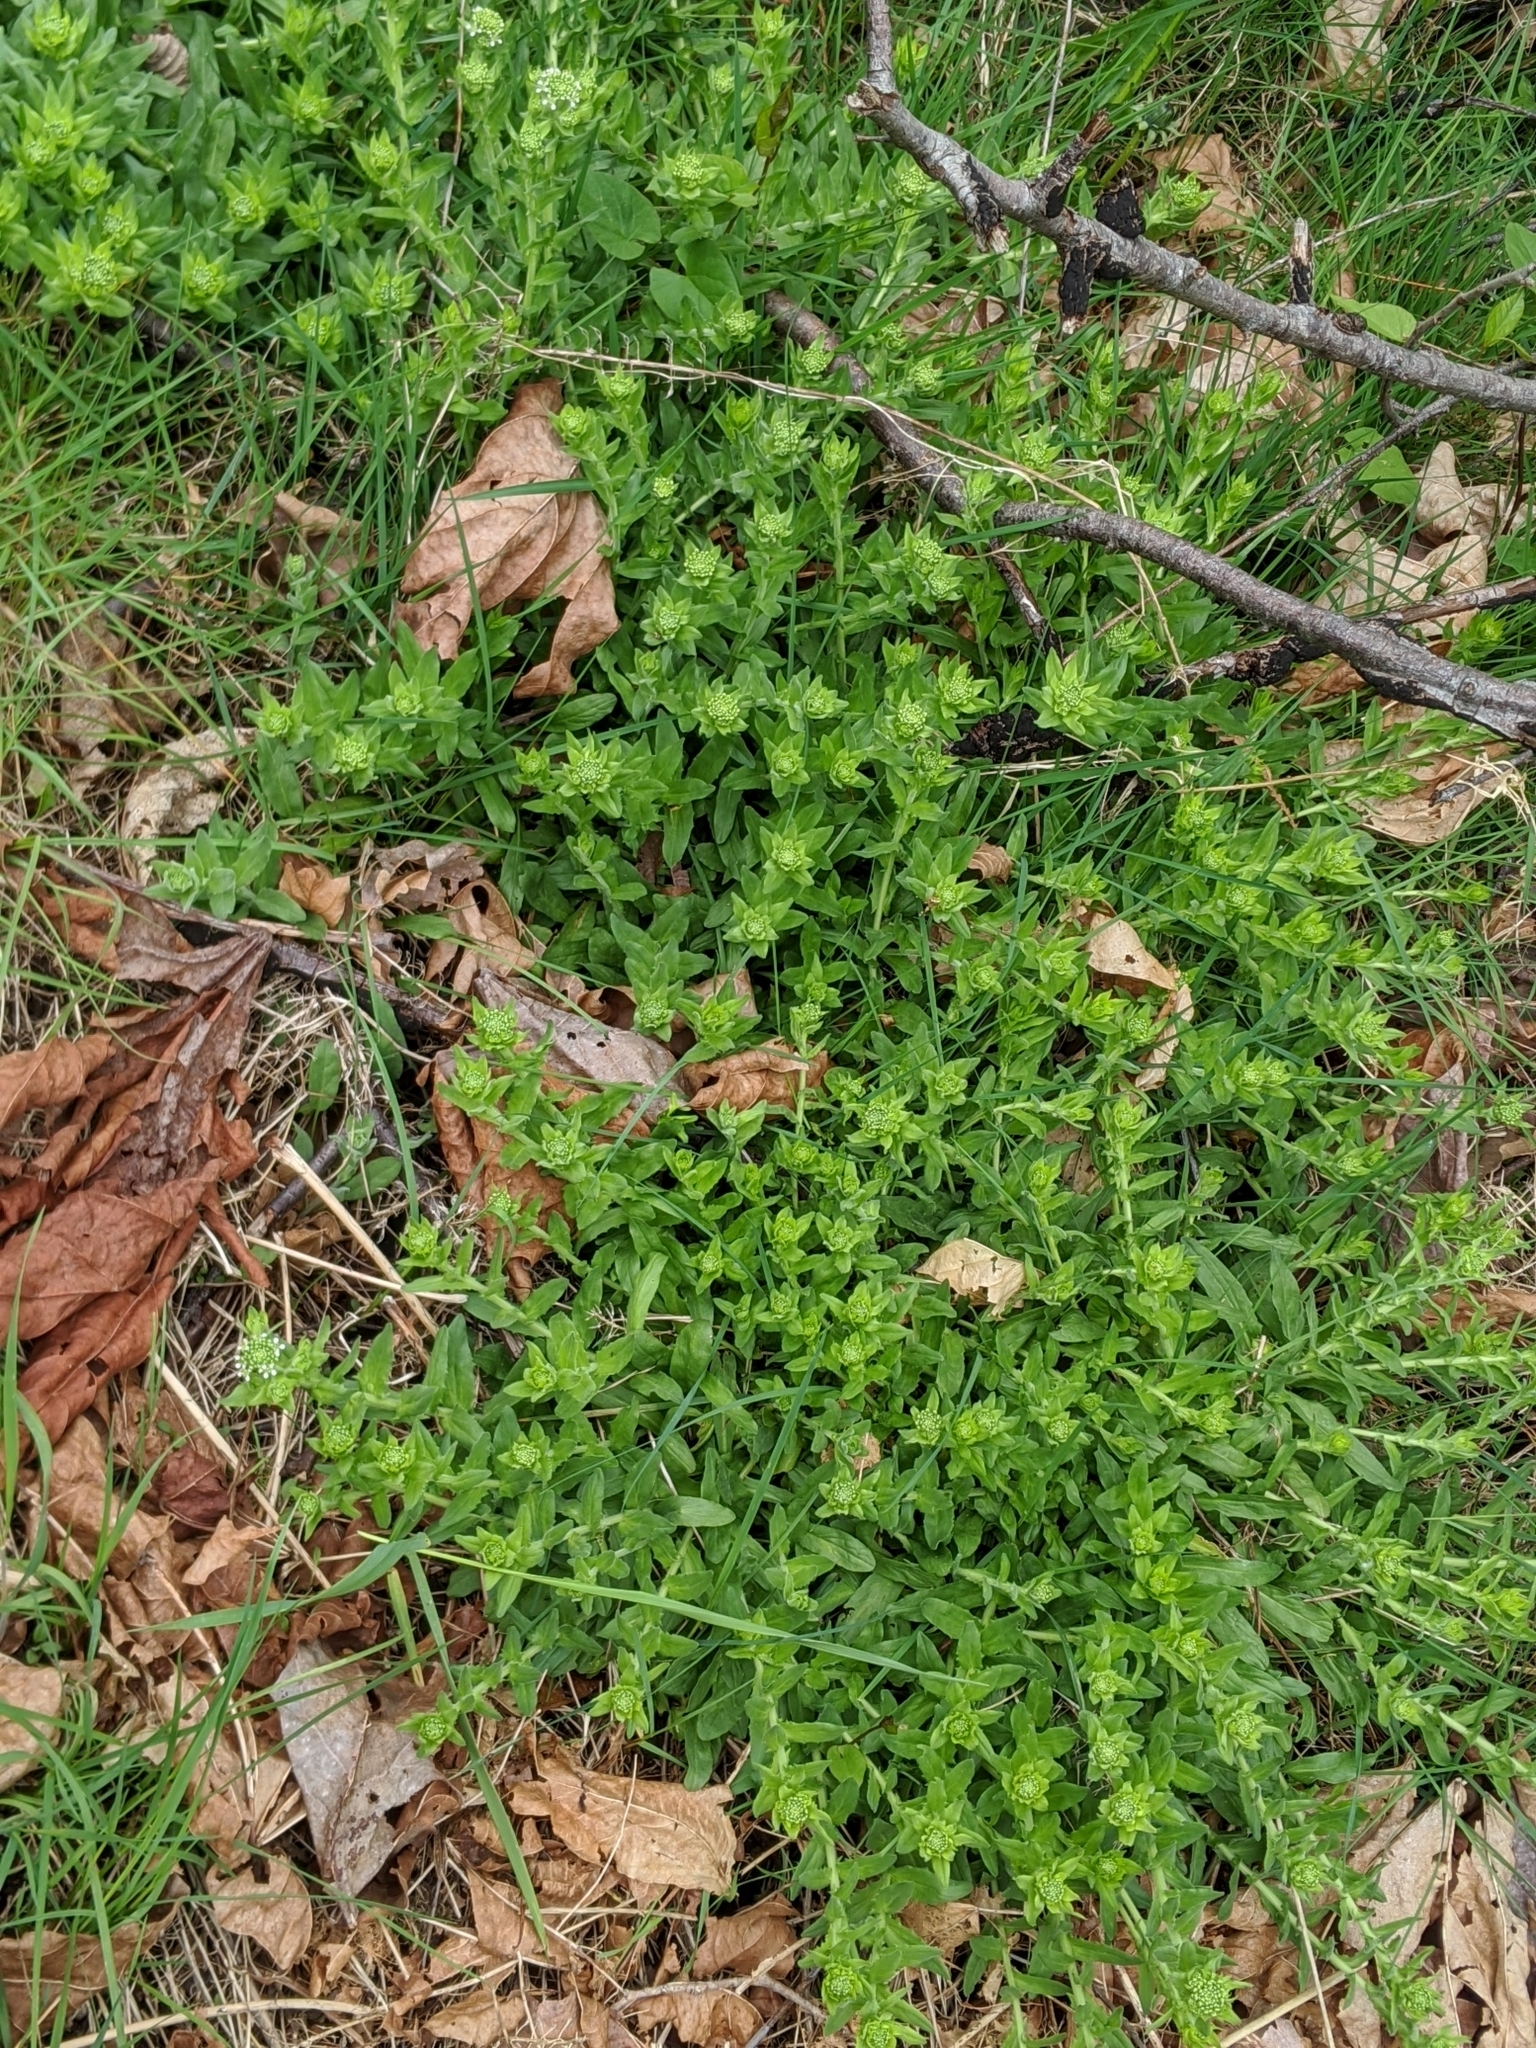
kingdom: Plantae
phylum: Tracheophyta
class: Magnoliopsida
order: Brassicales
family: Brassicaceae
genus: Lepidium
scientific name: Lepidium heterophyllum
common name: Smith's pepperwort
